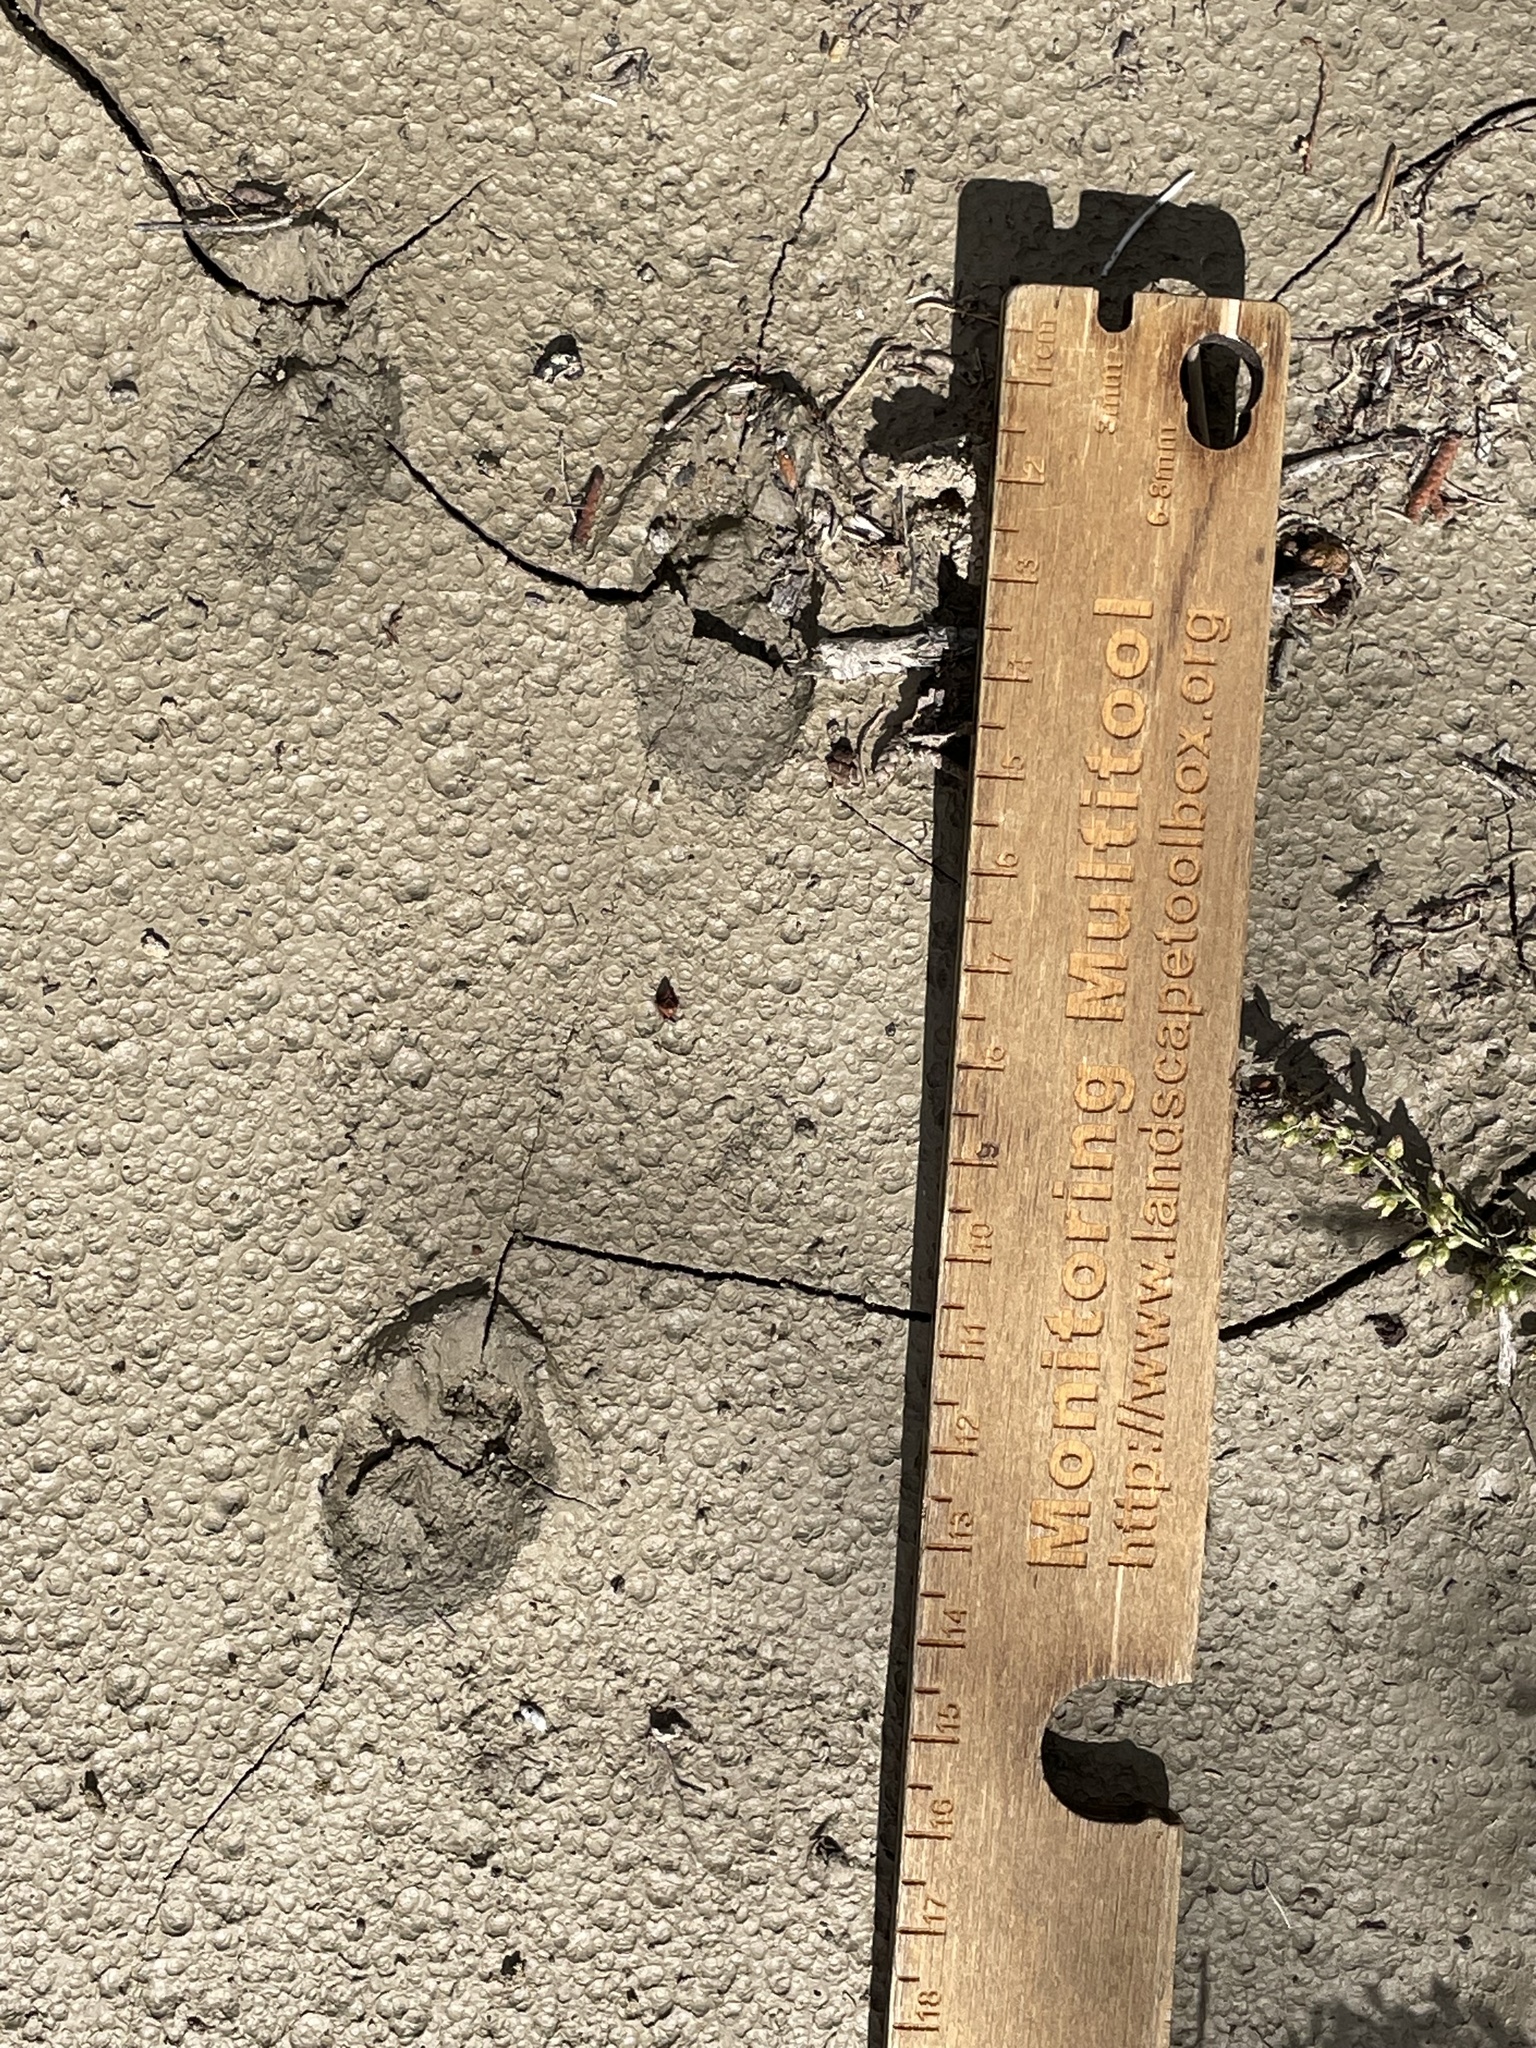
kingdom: Animalia
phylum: Chordata
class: Mammalia
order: Lagomorpha
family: Leporidae
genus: Sylvilagus
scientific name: Sylvilagus audubonii
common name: Desert cottontail
